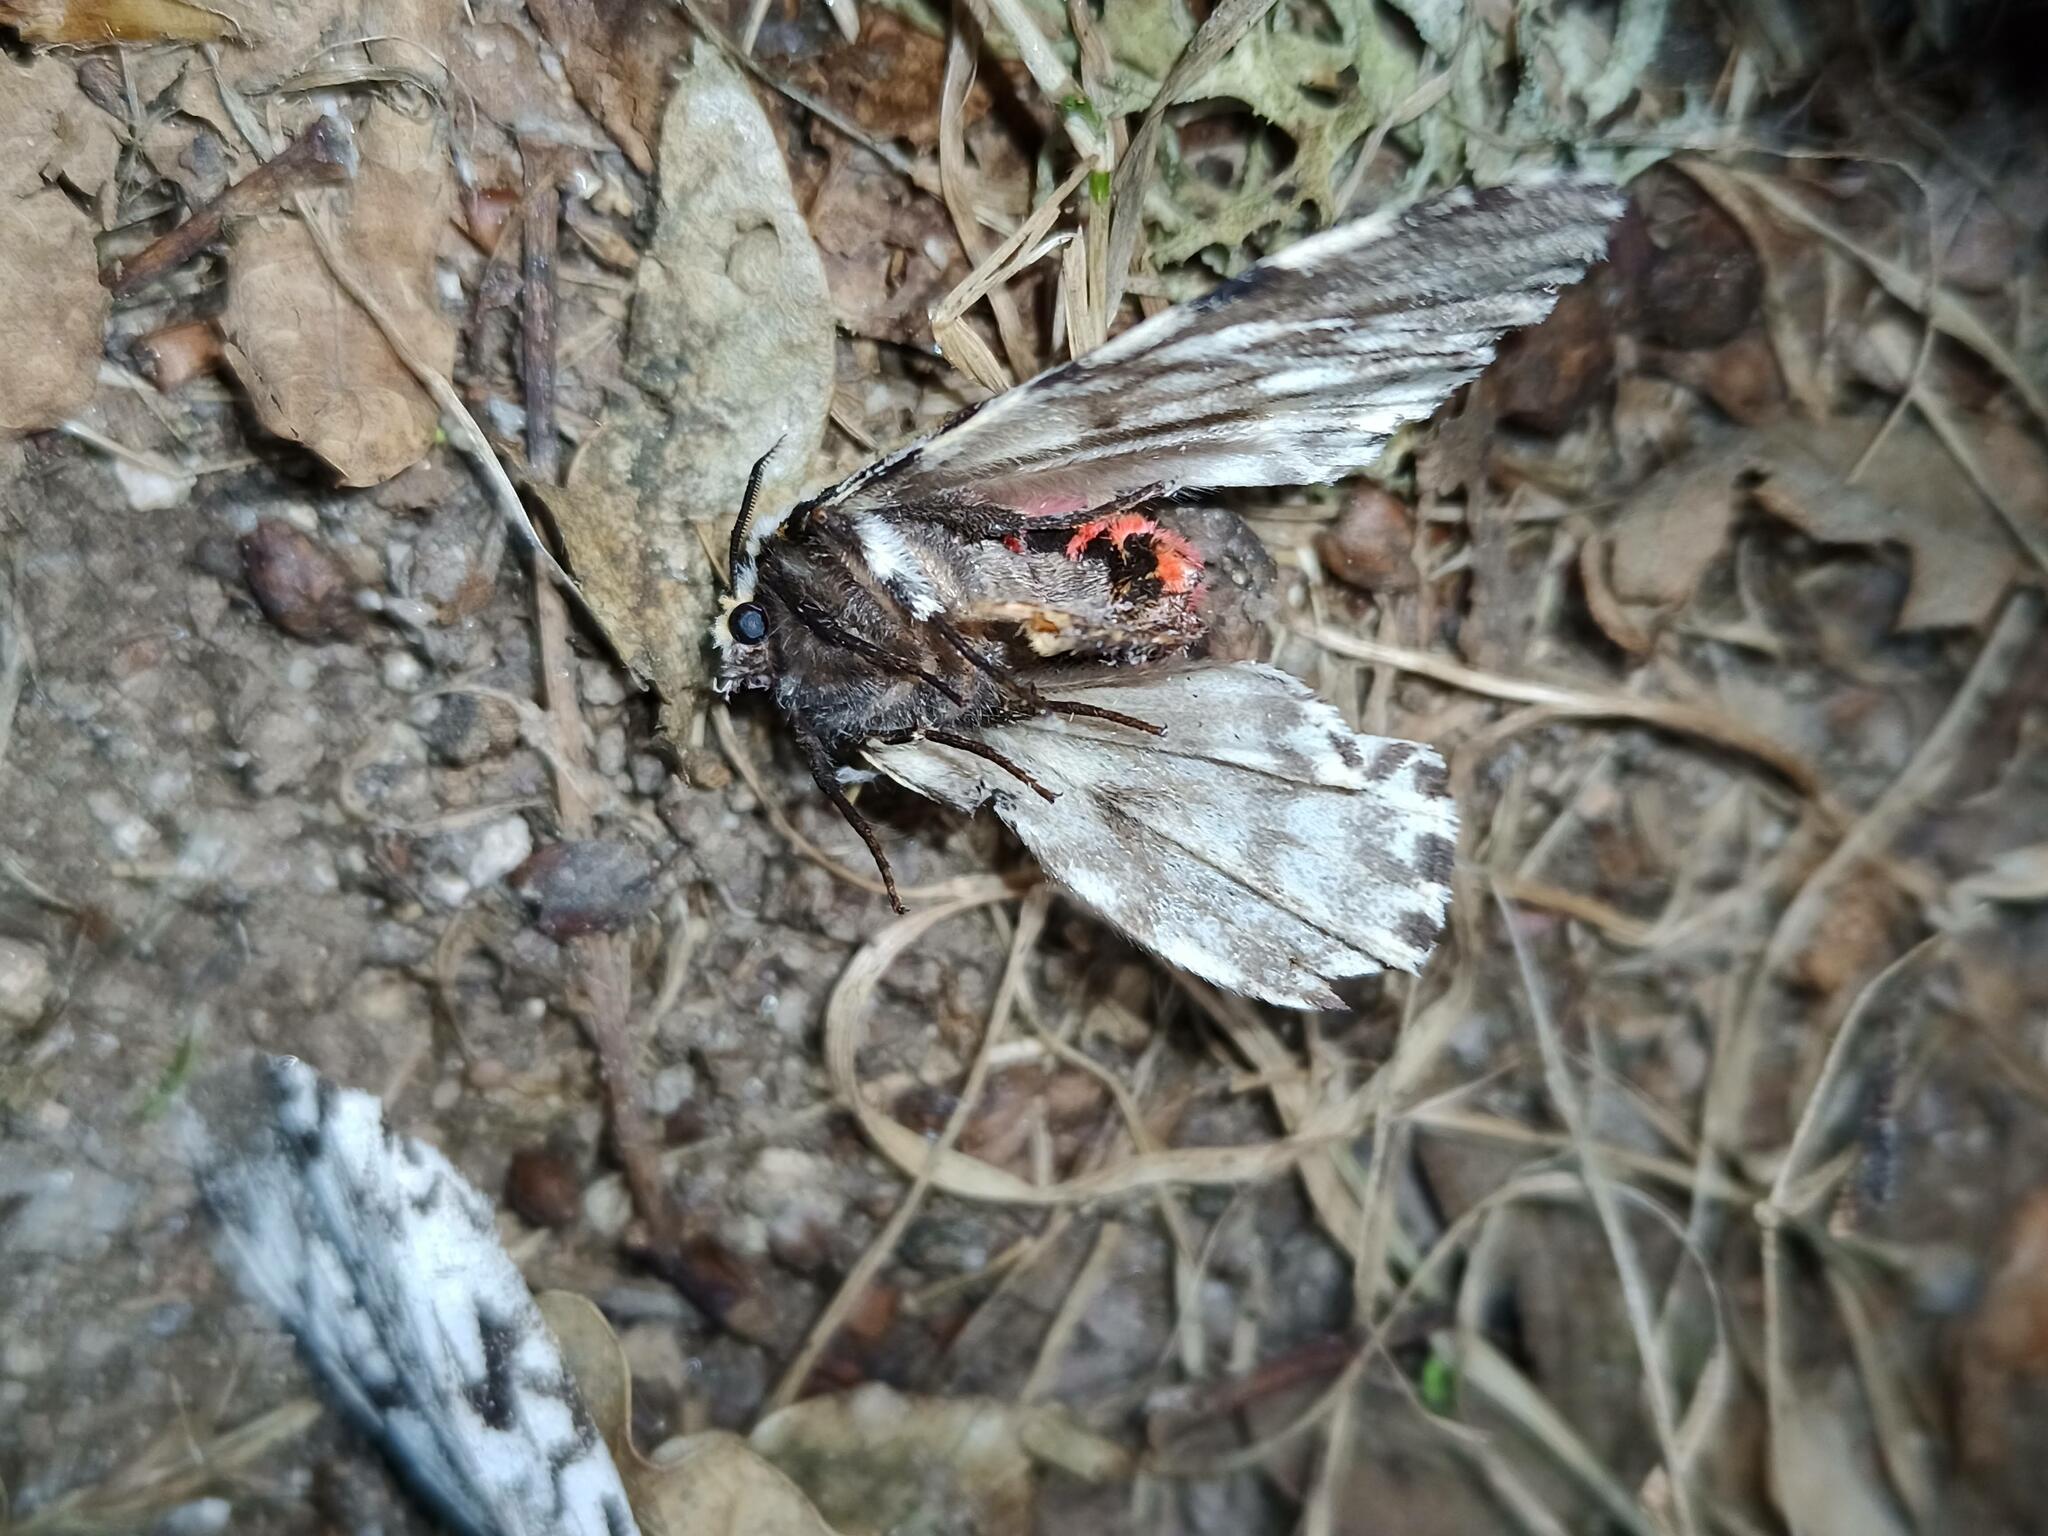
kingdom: Animalia
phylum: Arthropoda
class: Insecta
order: Lepidoptera
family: Erebidae
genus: Lymantria
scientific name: Lymantria monacha
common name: Black arches
